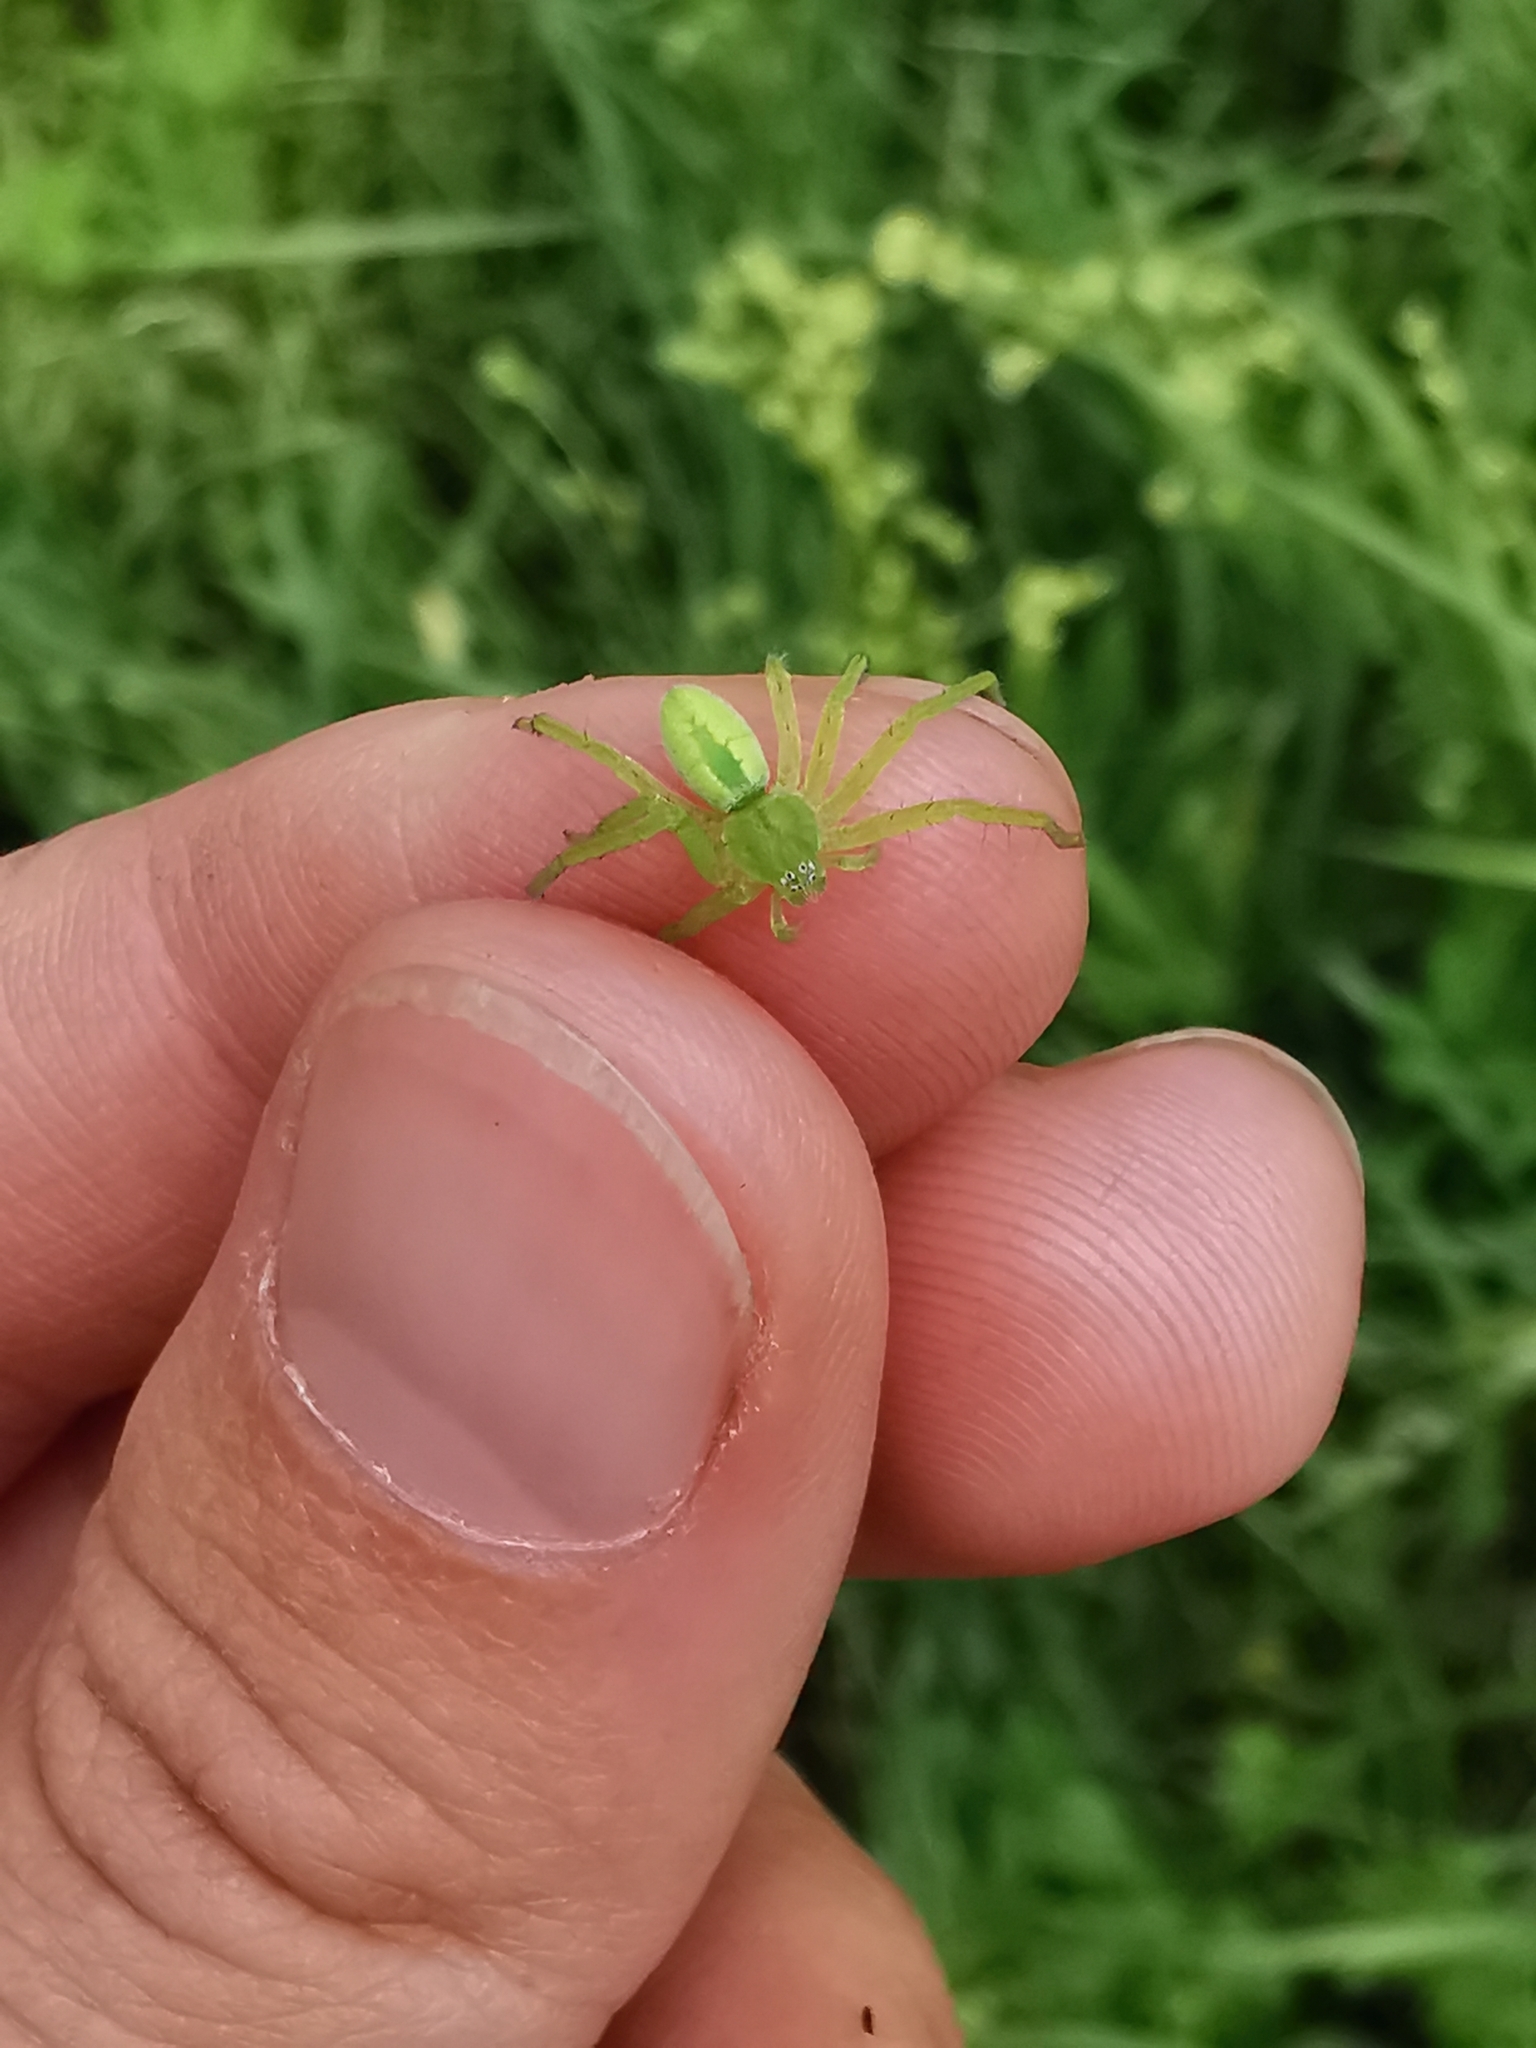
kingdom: Animalia
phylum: Arthropoda
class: Arachnida
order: Araneae
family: Sparassidae
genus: Micrommata
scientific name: Micrommata virescens
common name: Green spider
